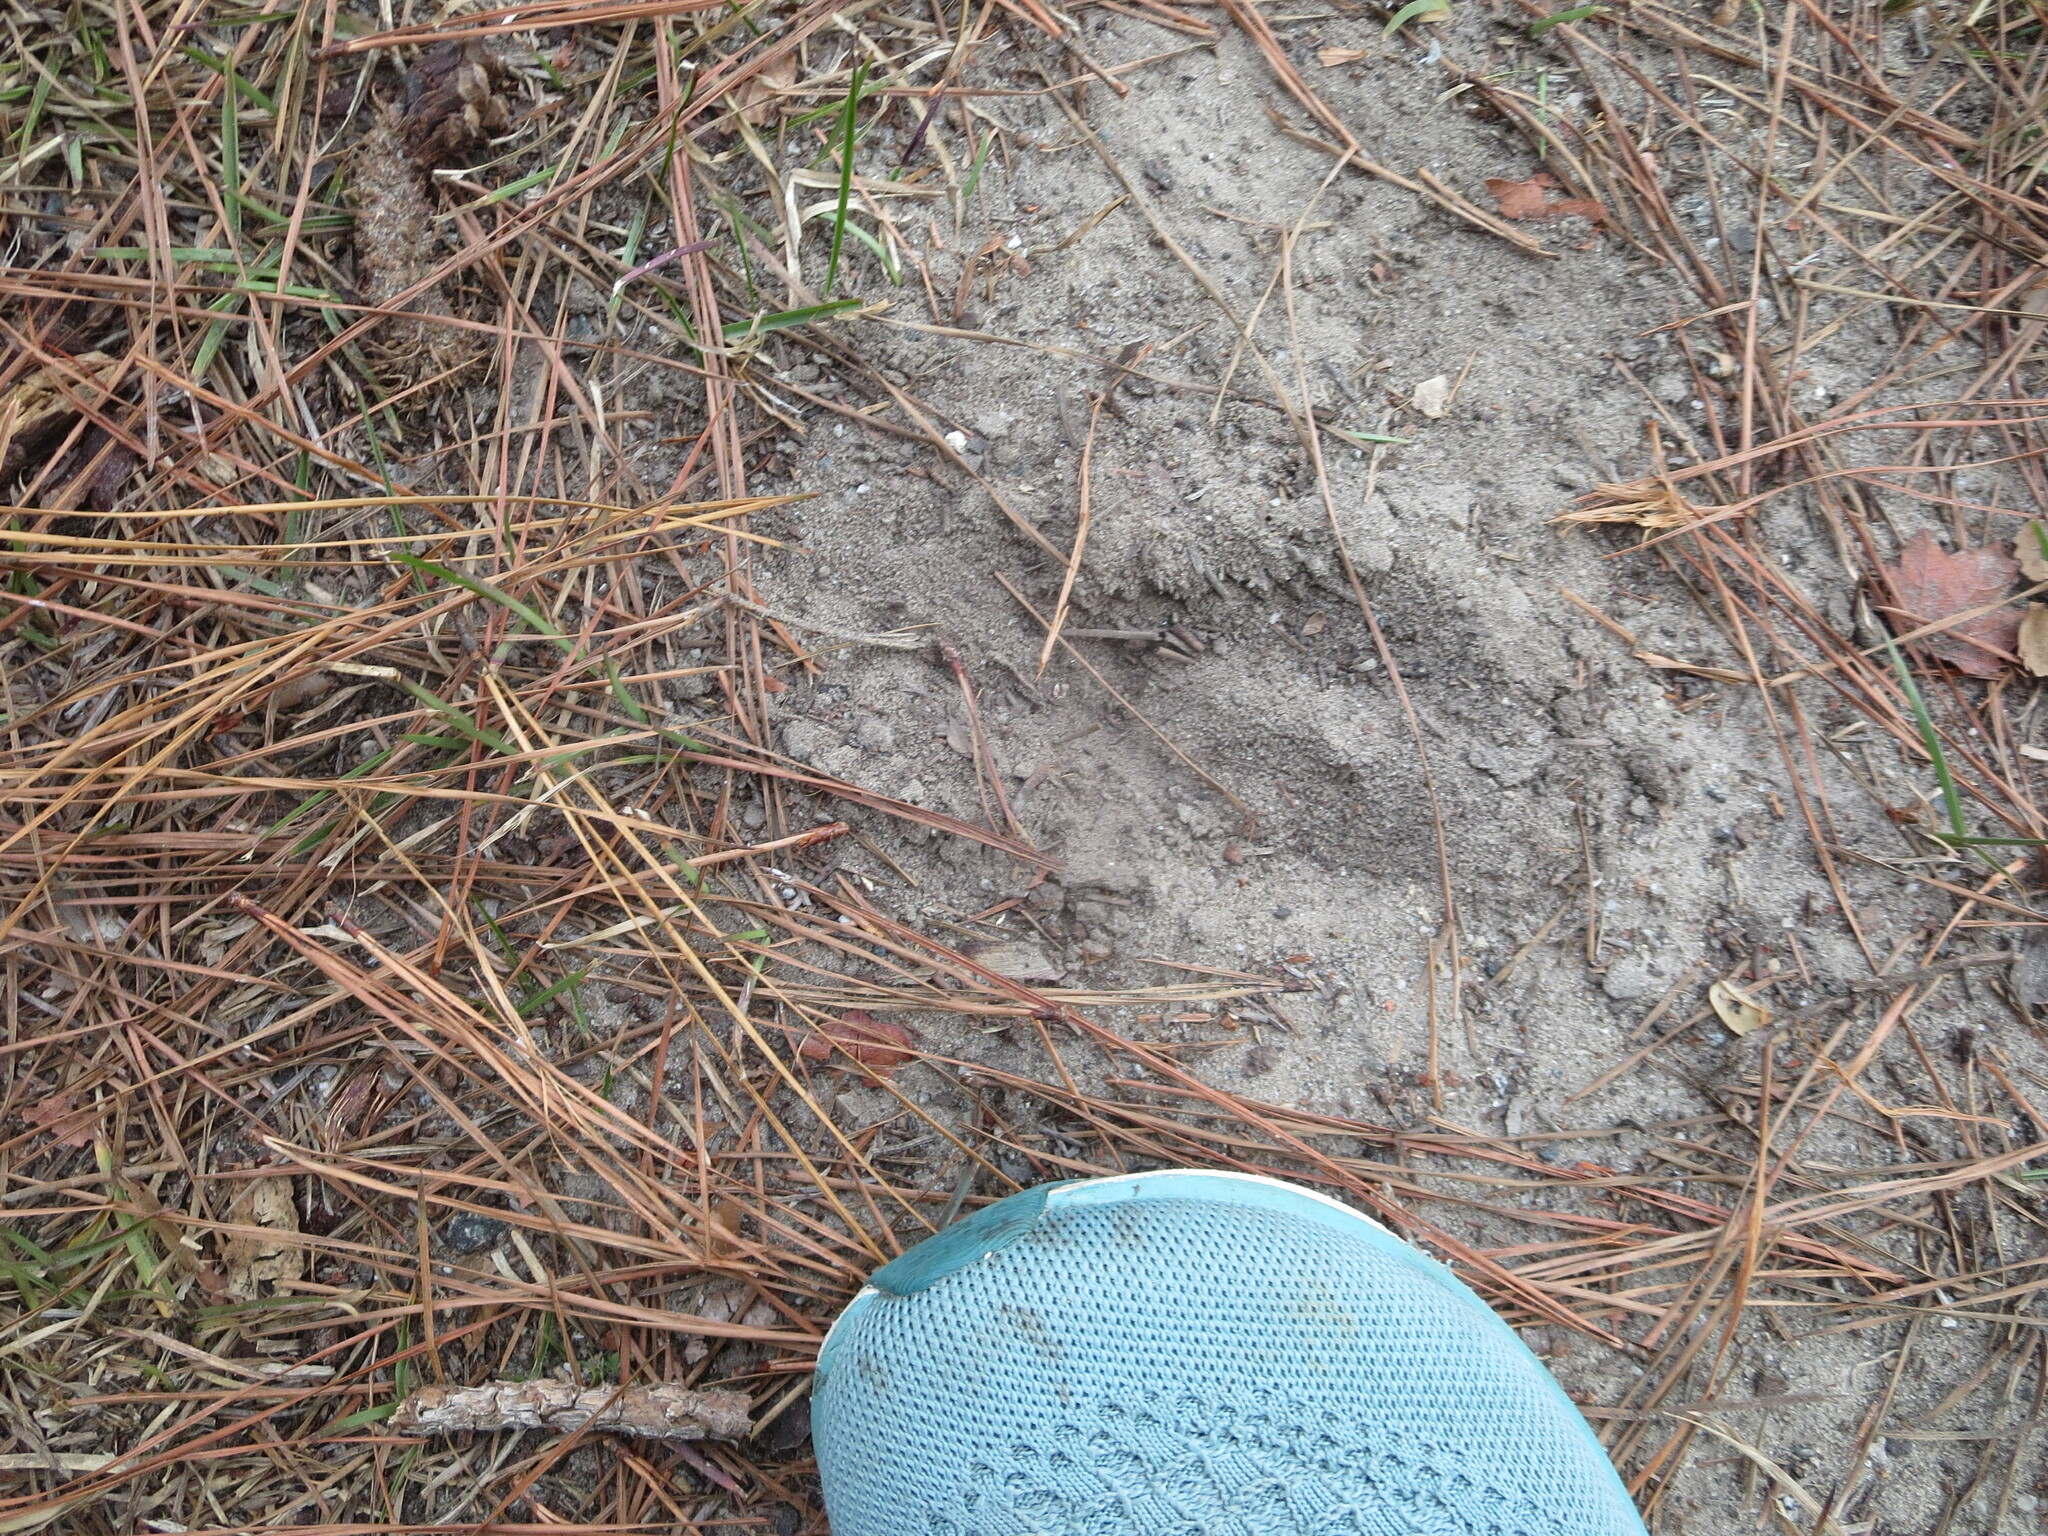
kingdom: Animalia
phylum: Chordata
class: Mammalia
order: Artiodactyla
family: Cervidae
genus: Odocoileus
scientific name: Odocoileus virginianus
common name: White-tailed deer
